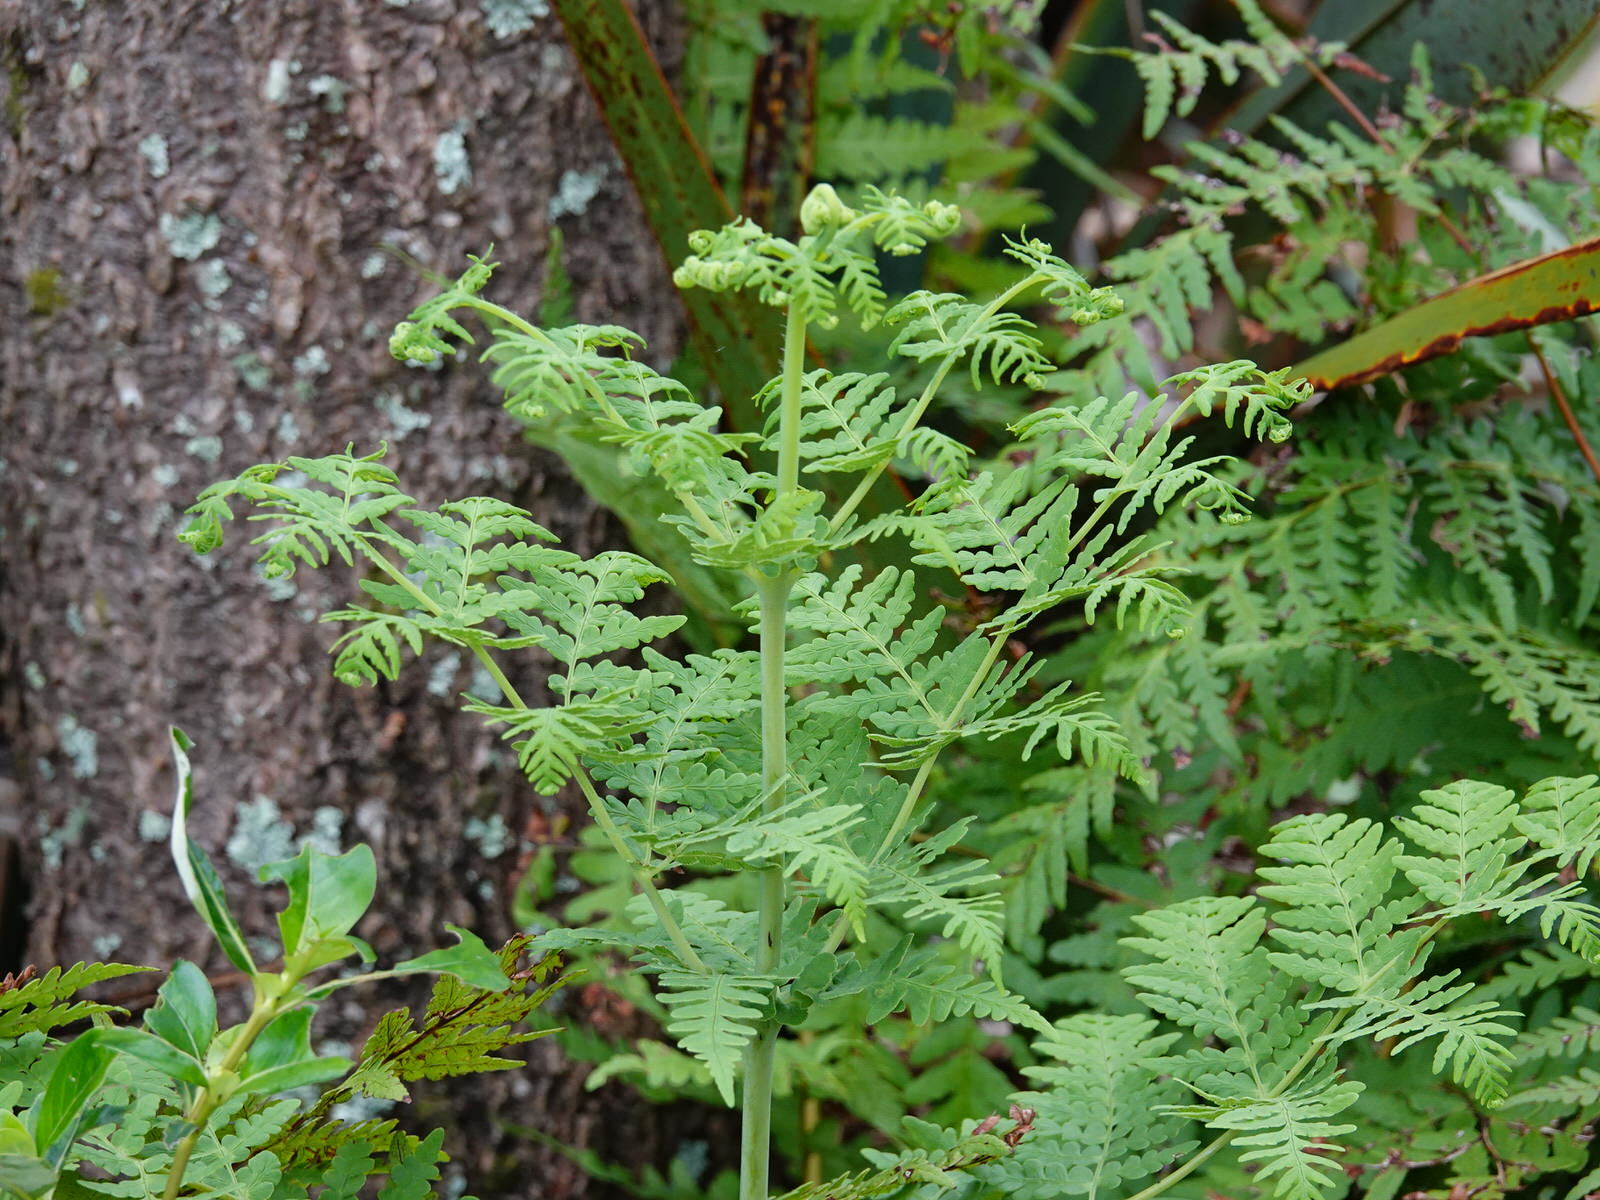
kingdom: Plantae
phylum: Tracheophyta
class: Polypodiopsida
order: Polypodiales
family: Dennstaedtiaceae
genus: Histiopteris
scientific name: Histiopteris incisa
